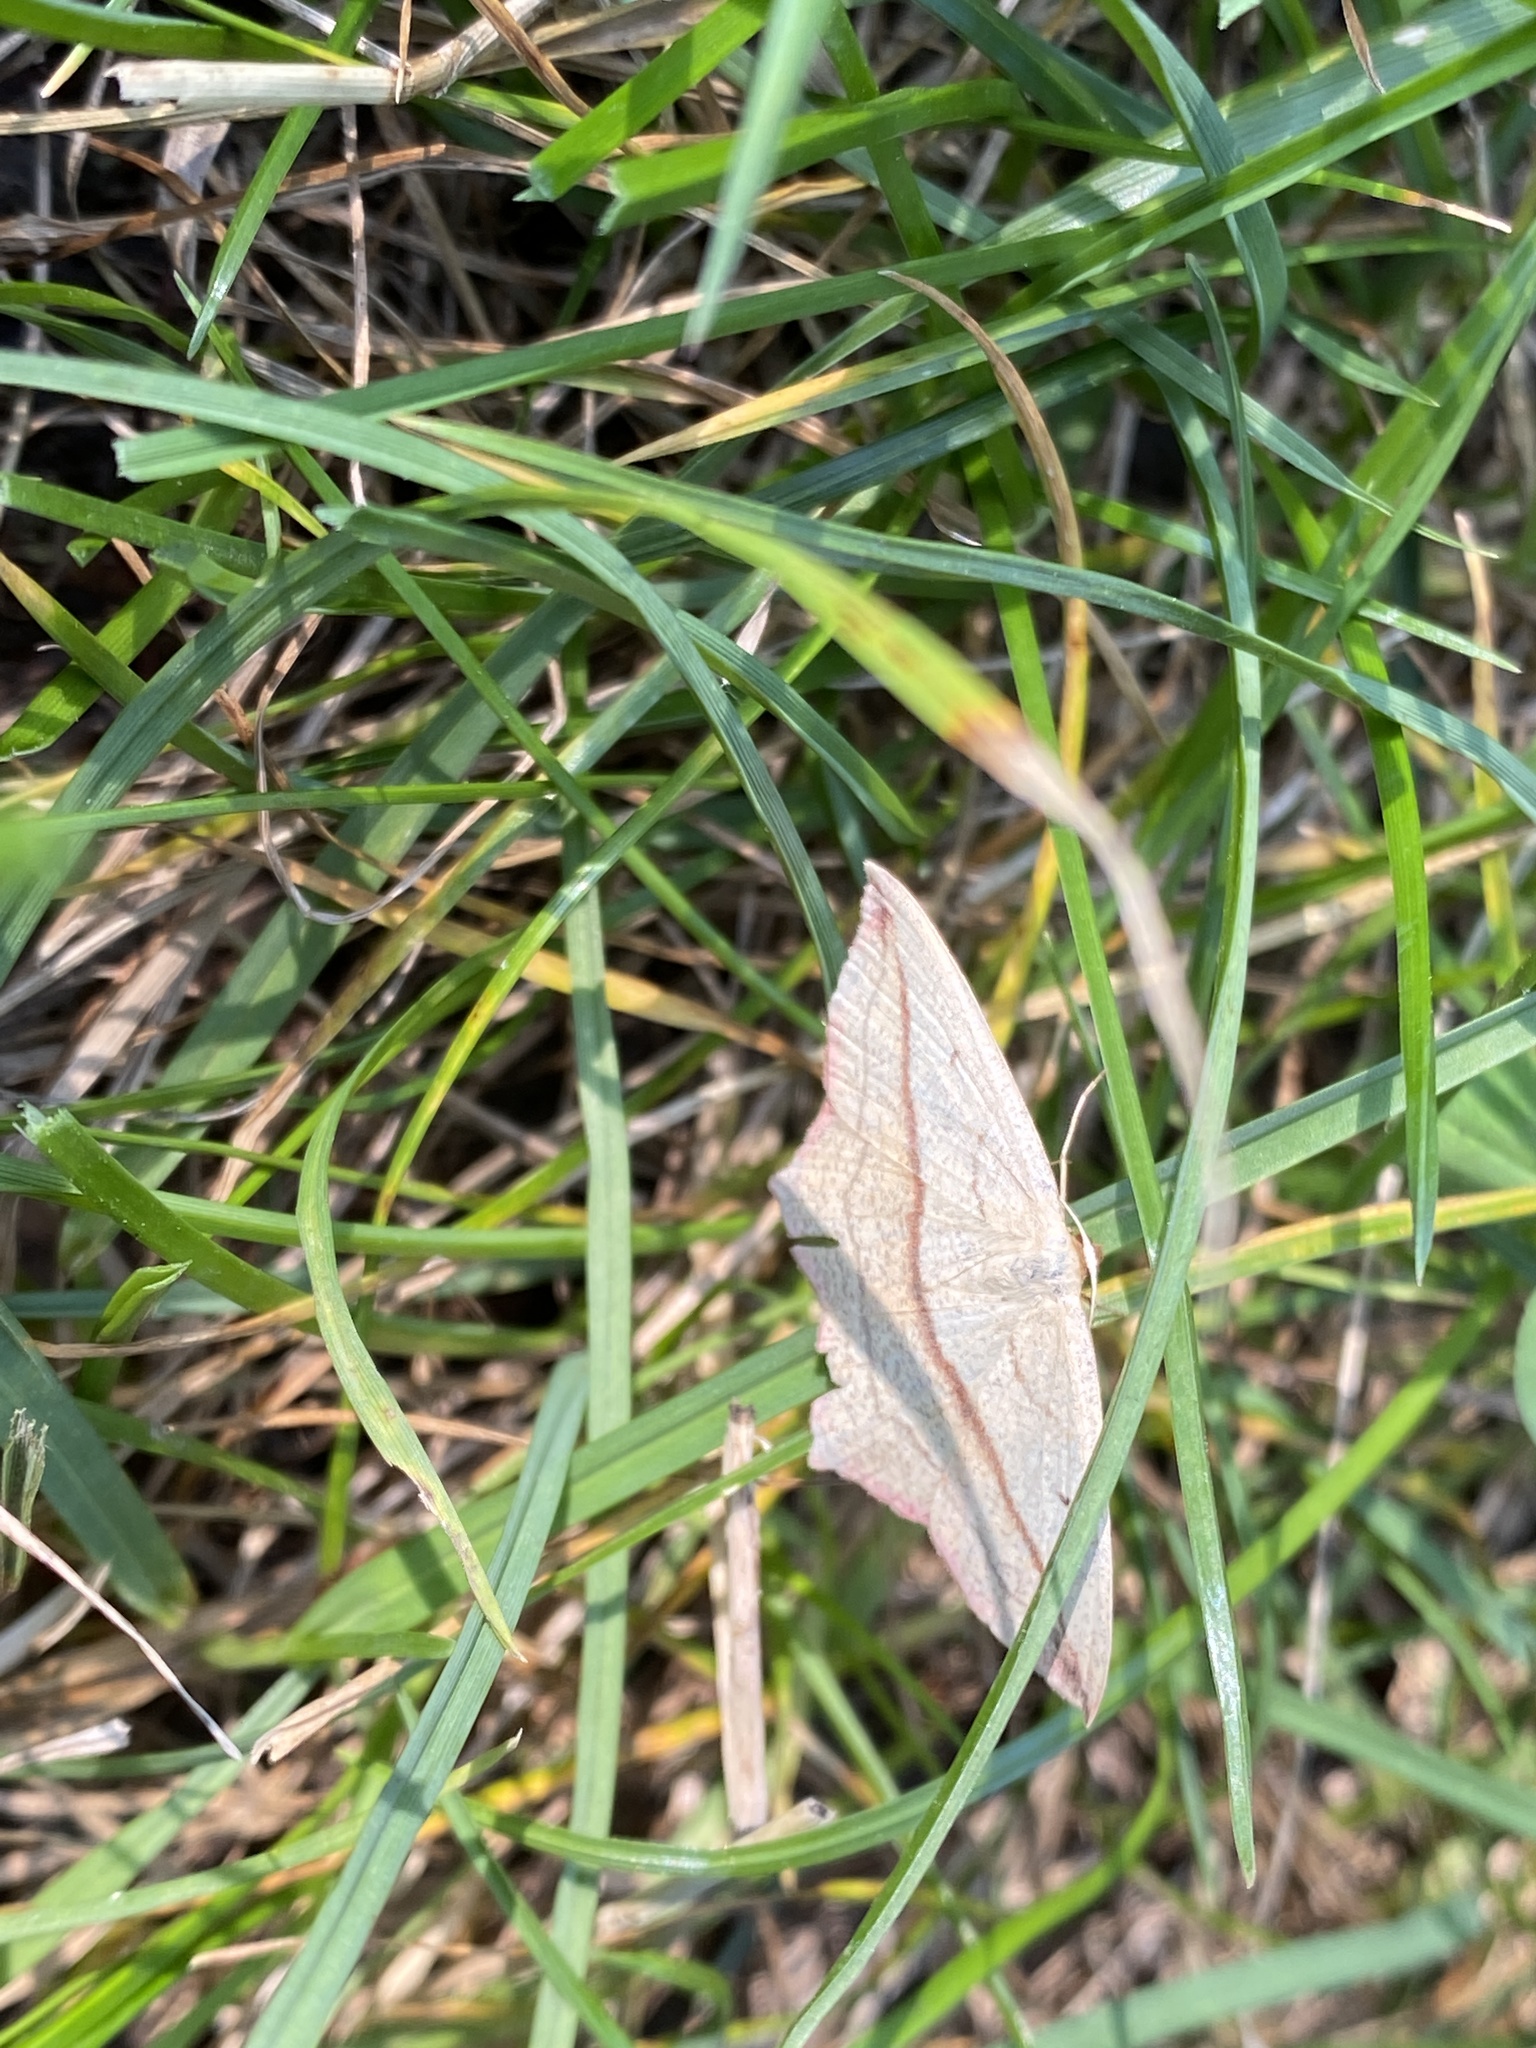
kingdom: Animalia
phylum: Arthropoda
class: Insecta
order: Lepidoptera
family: Geometridae
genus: Timandra
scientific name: Timandra comae
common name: Blood-vein
